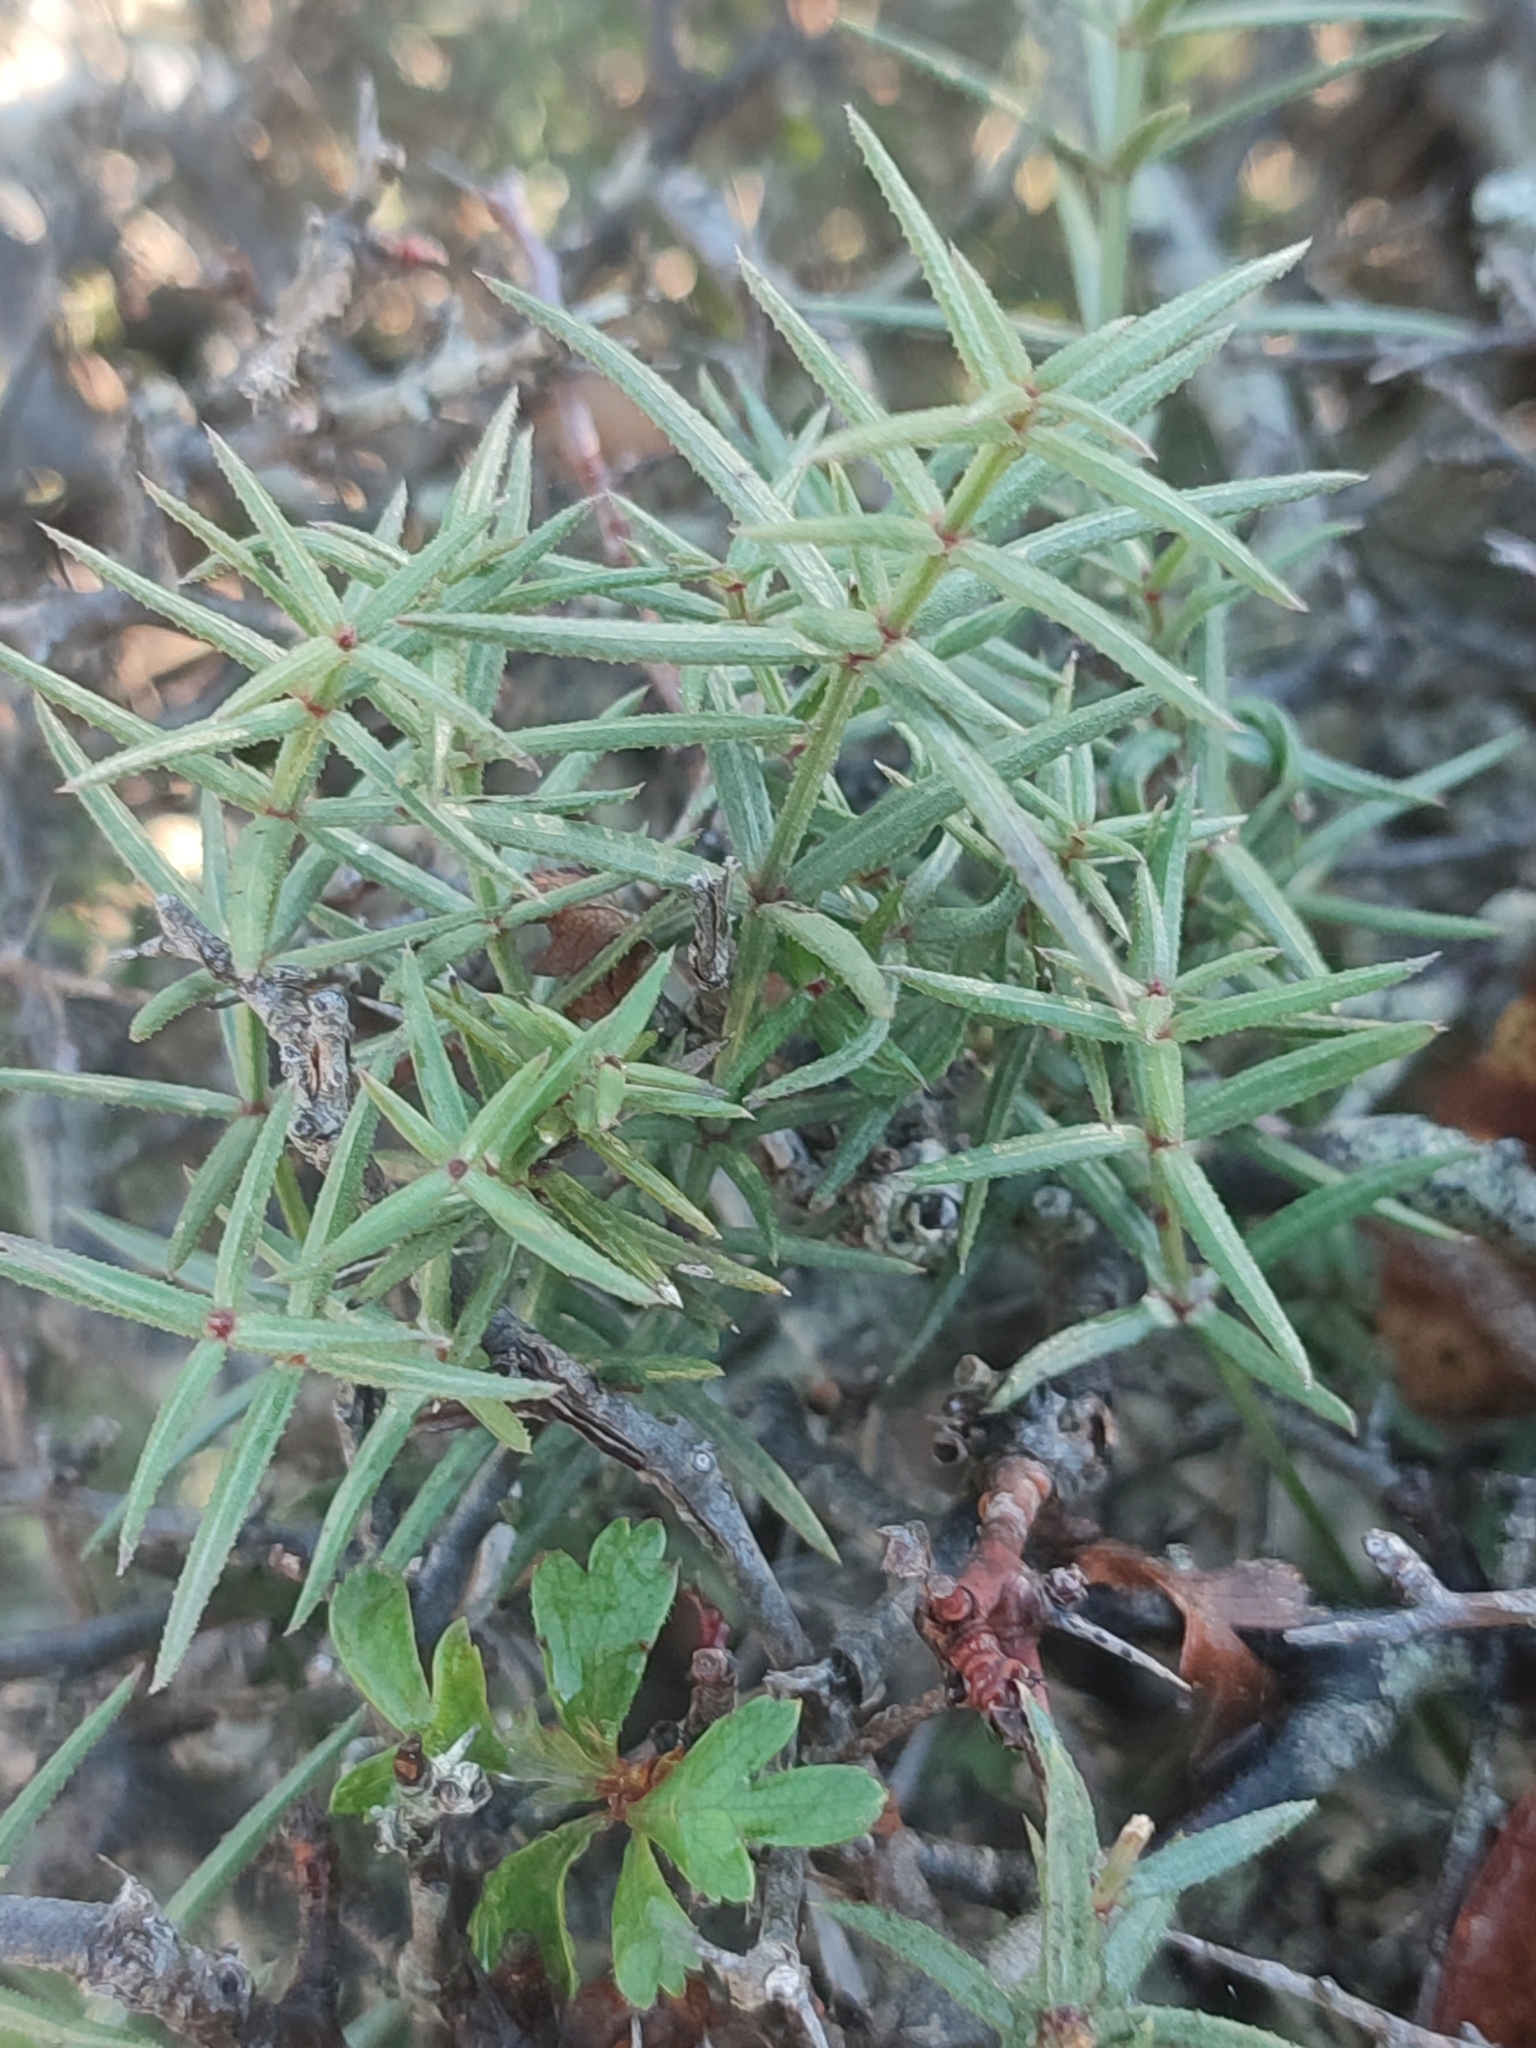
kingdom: Plantae
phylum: Tracheophyta
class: Magnoliopsida
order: Gentianales
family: Rubiaceae
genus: Rubia
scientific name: Rubia balearica
